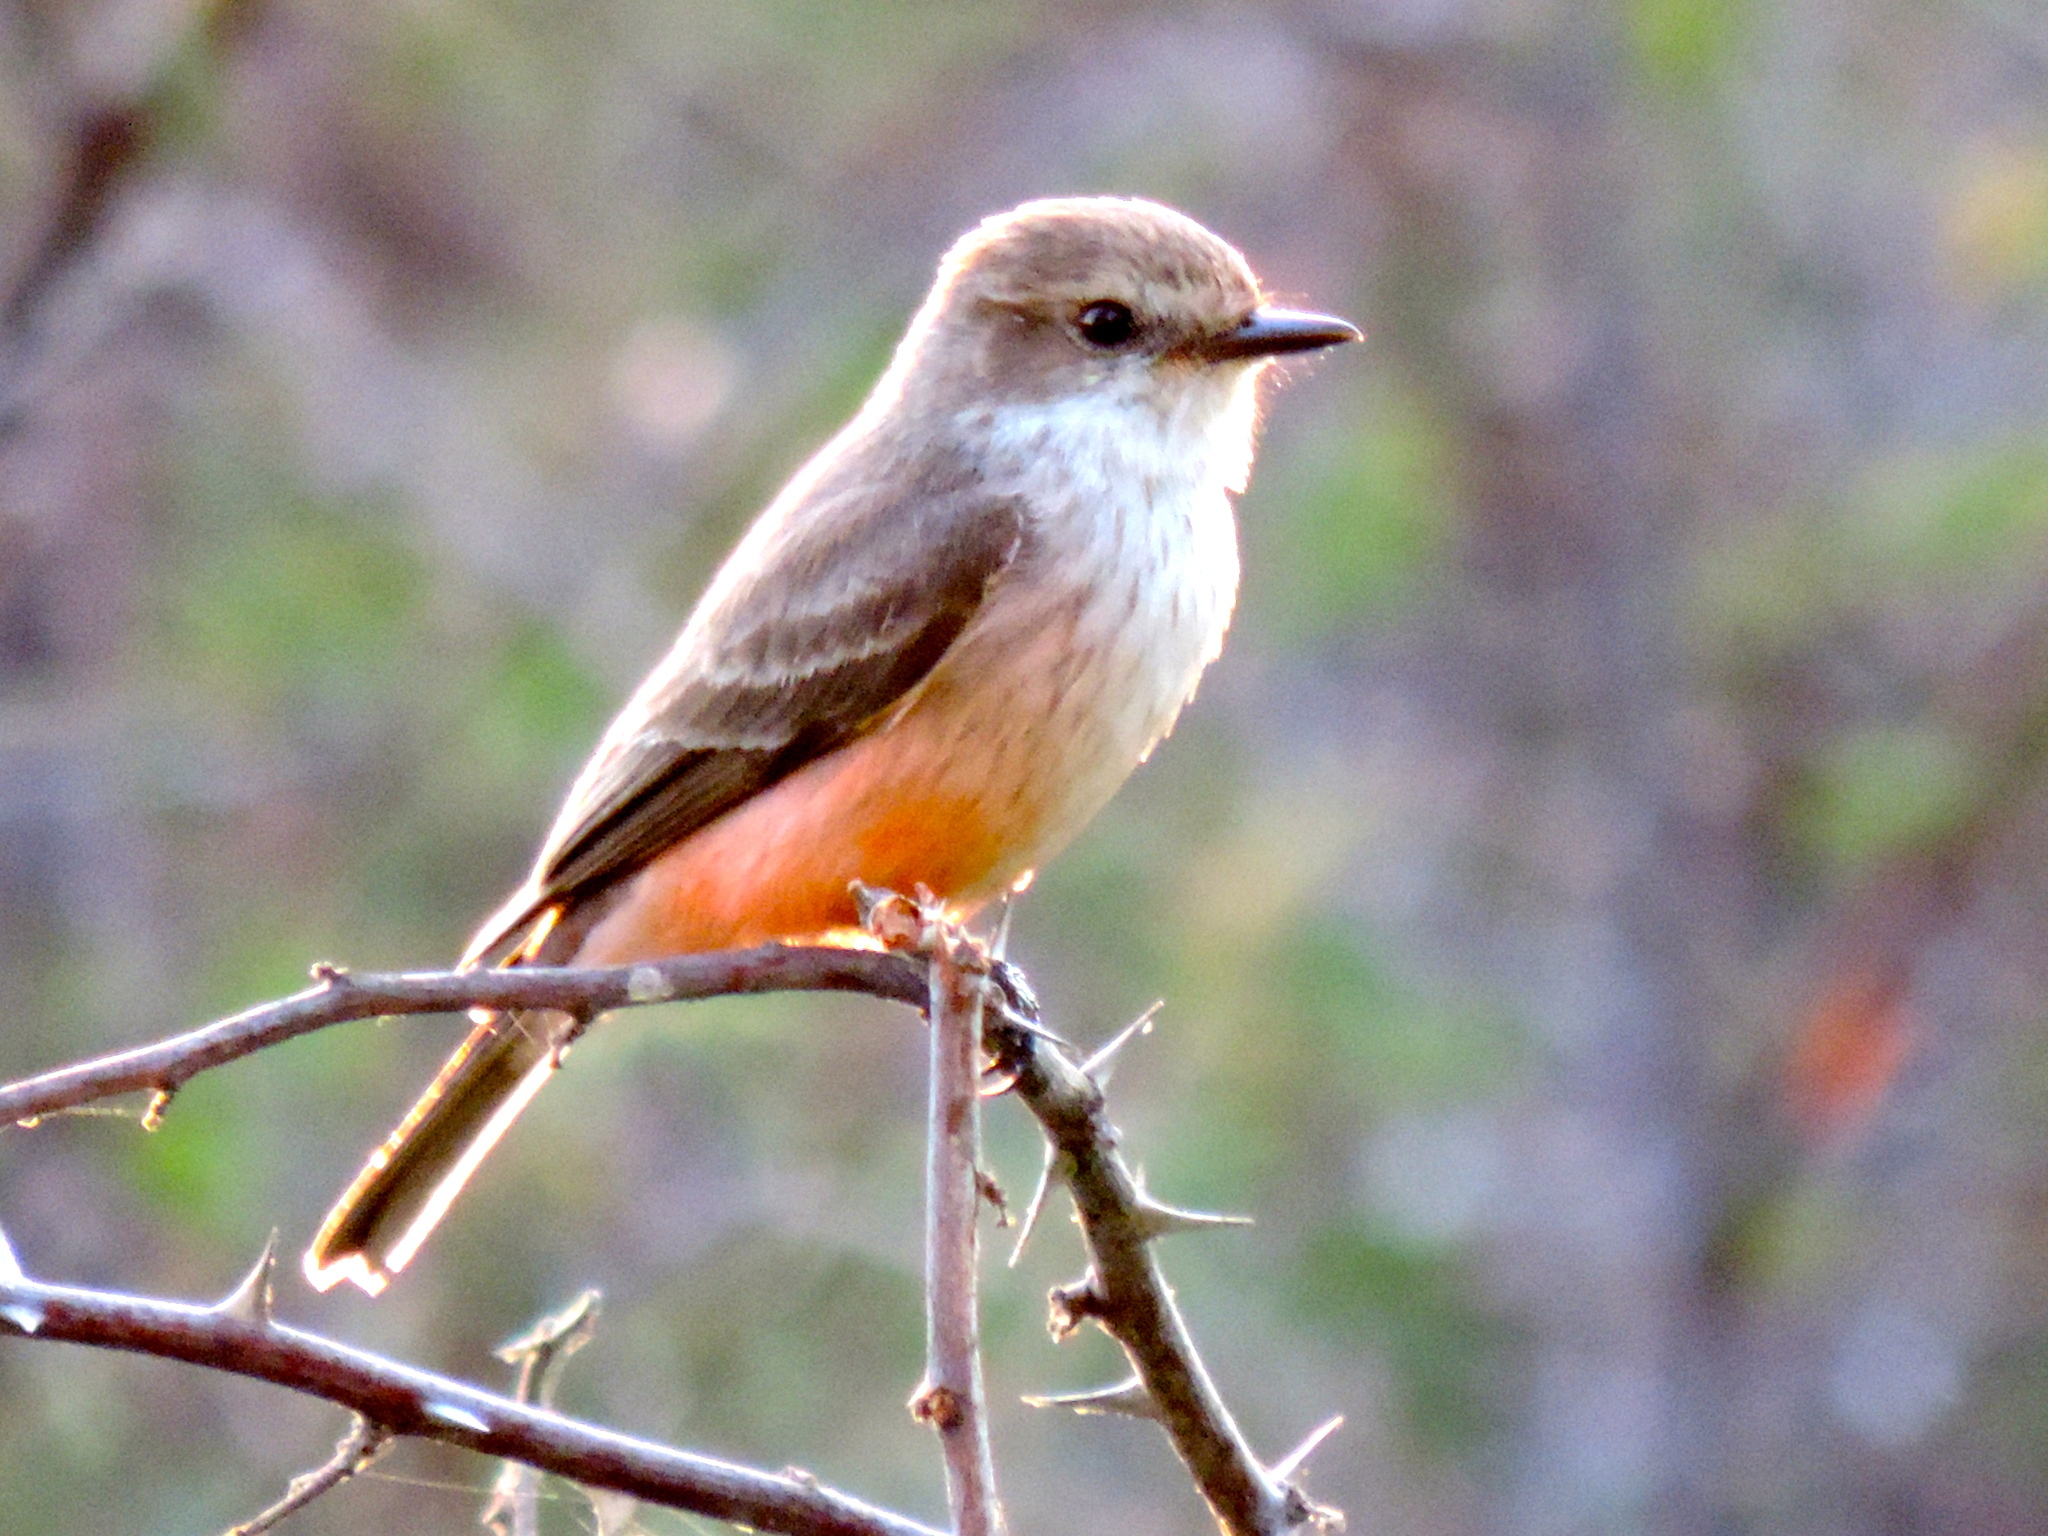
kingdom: Animalia
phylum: Chordata
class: Aves
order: Passeriformes
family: Tyrannidae
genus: Pyrocephalus
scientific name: Pyrocephalus rubinus
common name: Vermilion flycatcher
